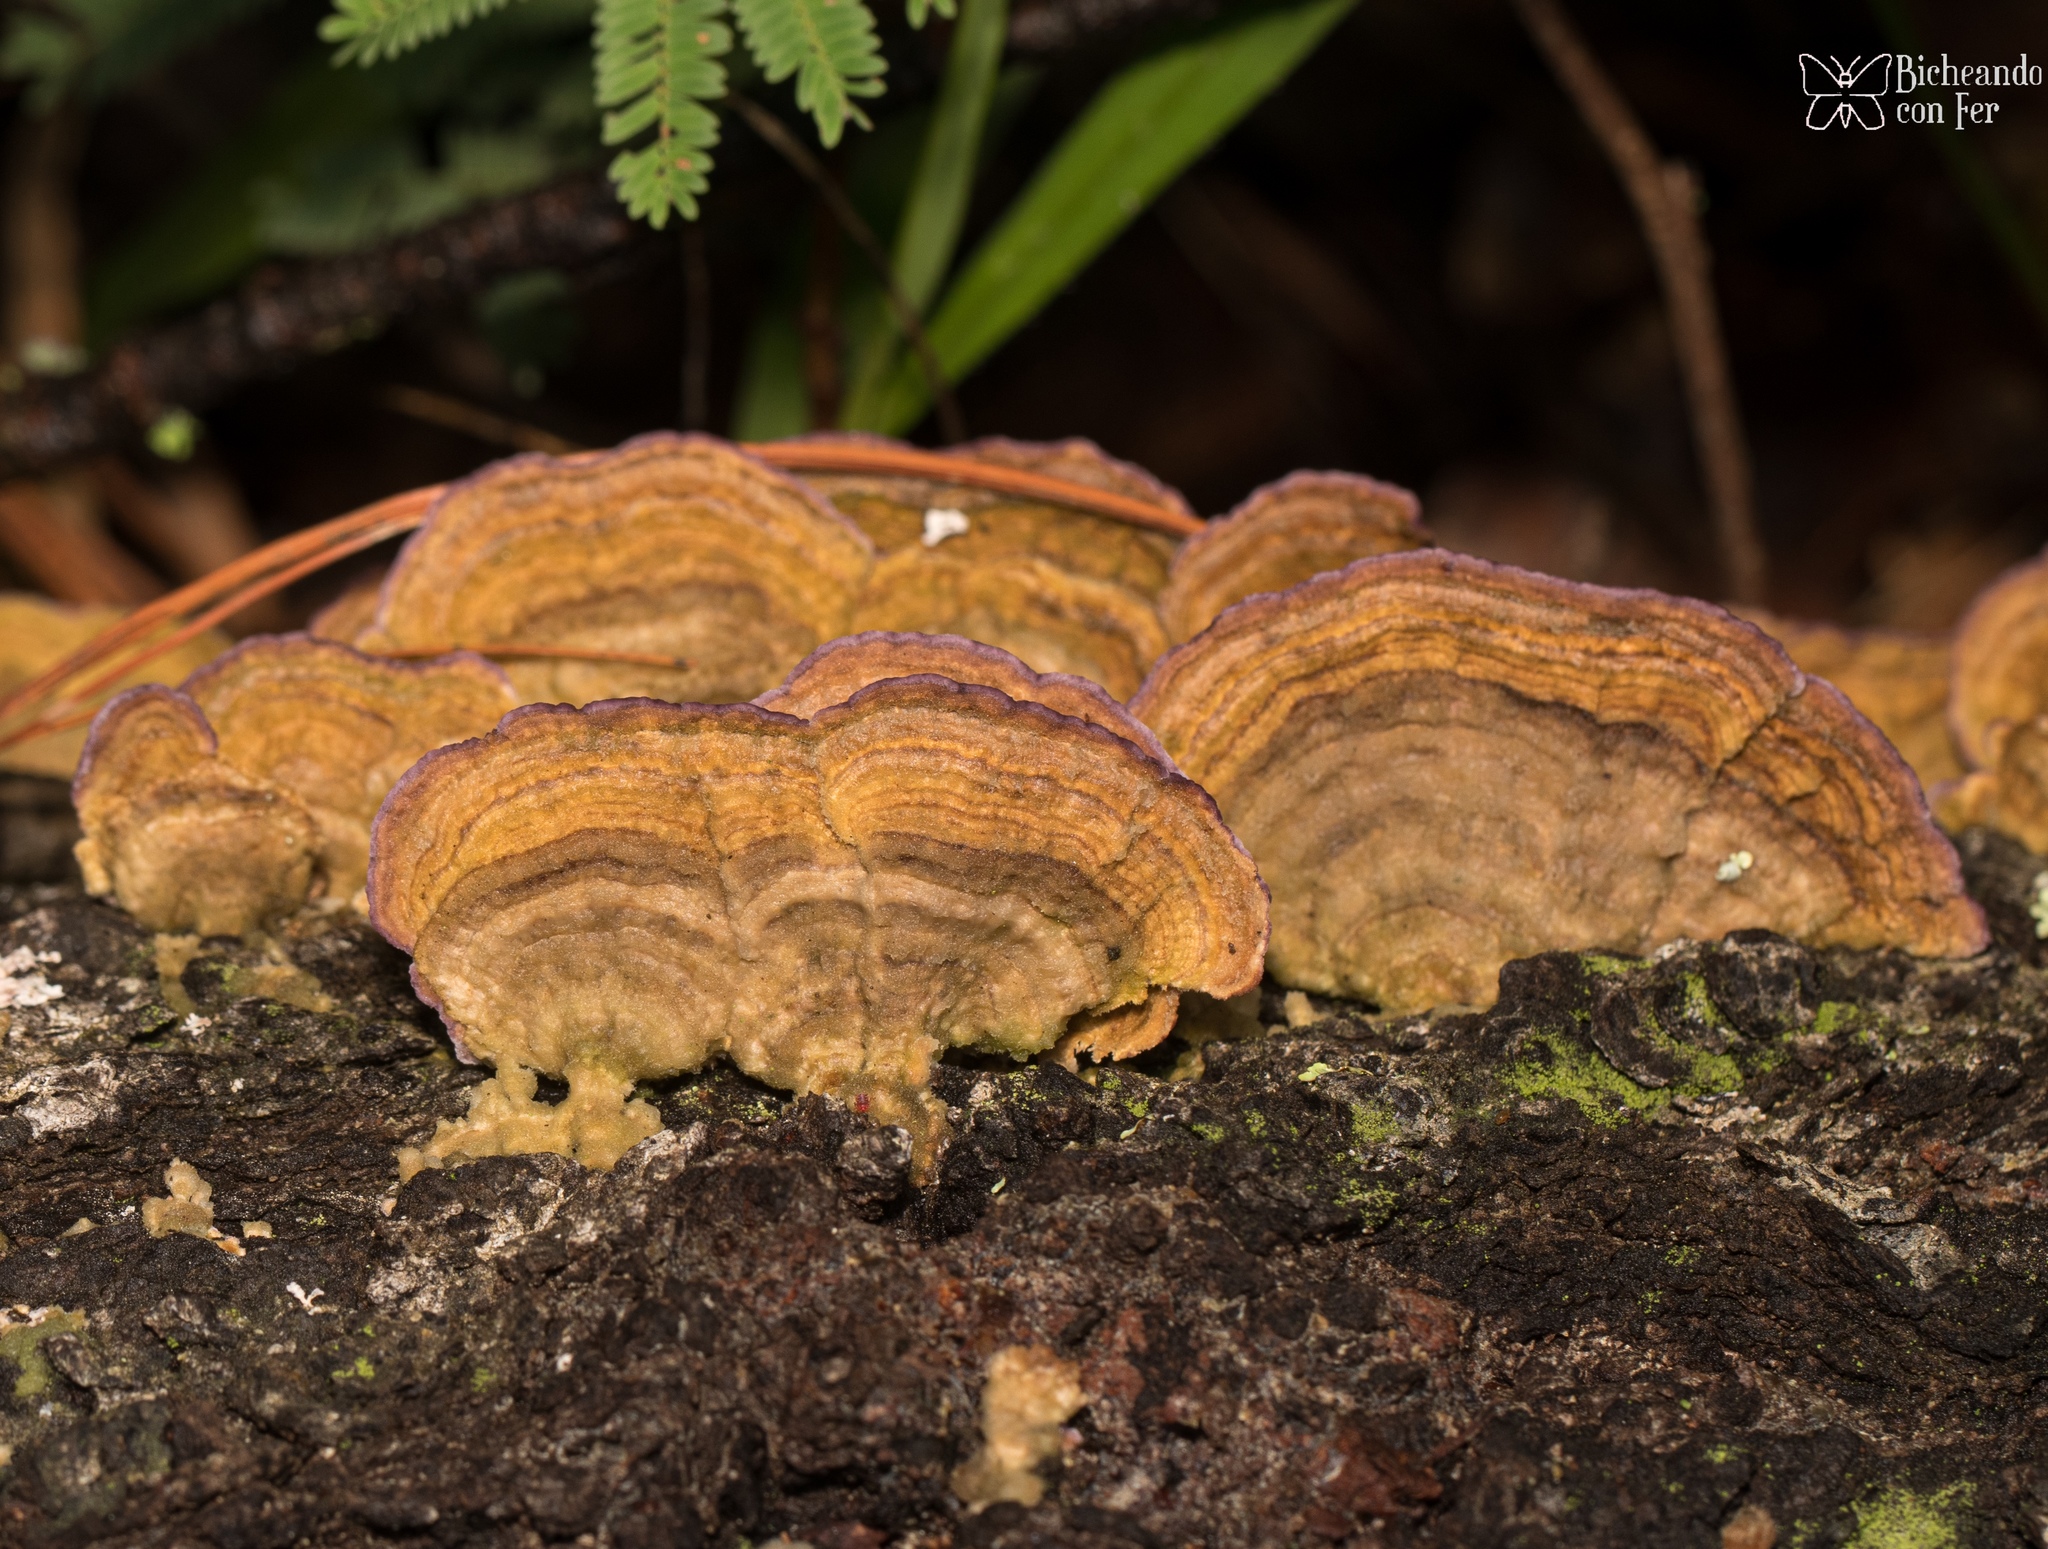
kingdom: Fungi
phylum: Basidiomycota
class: Agaricomycetes
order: Hymenochaetales
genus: Trichaptum
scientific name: Trichaptum biforme
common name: Violet-toothed polypore
